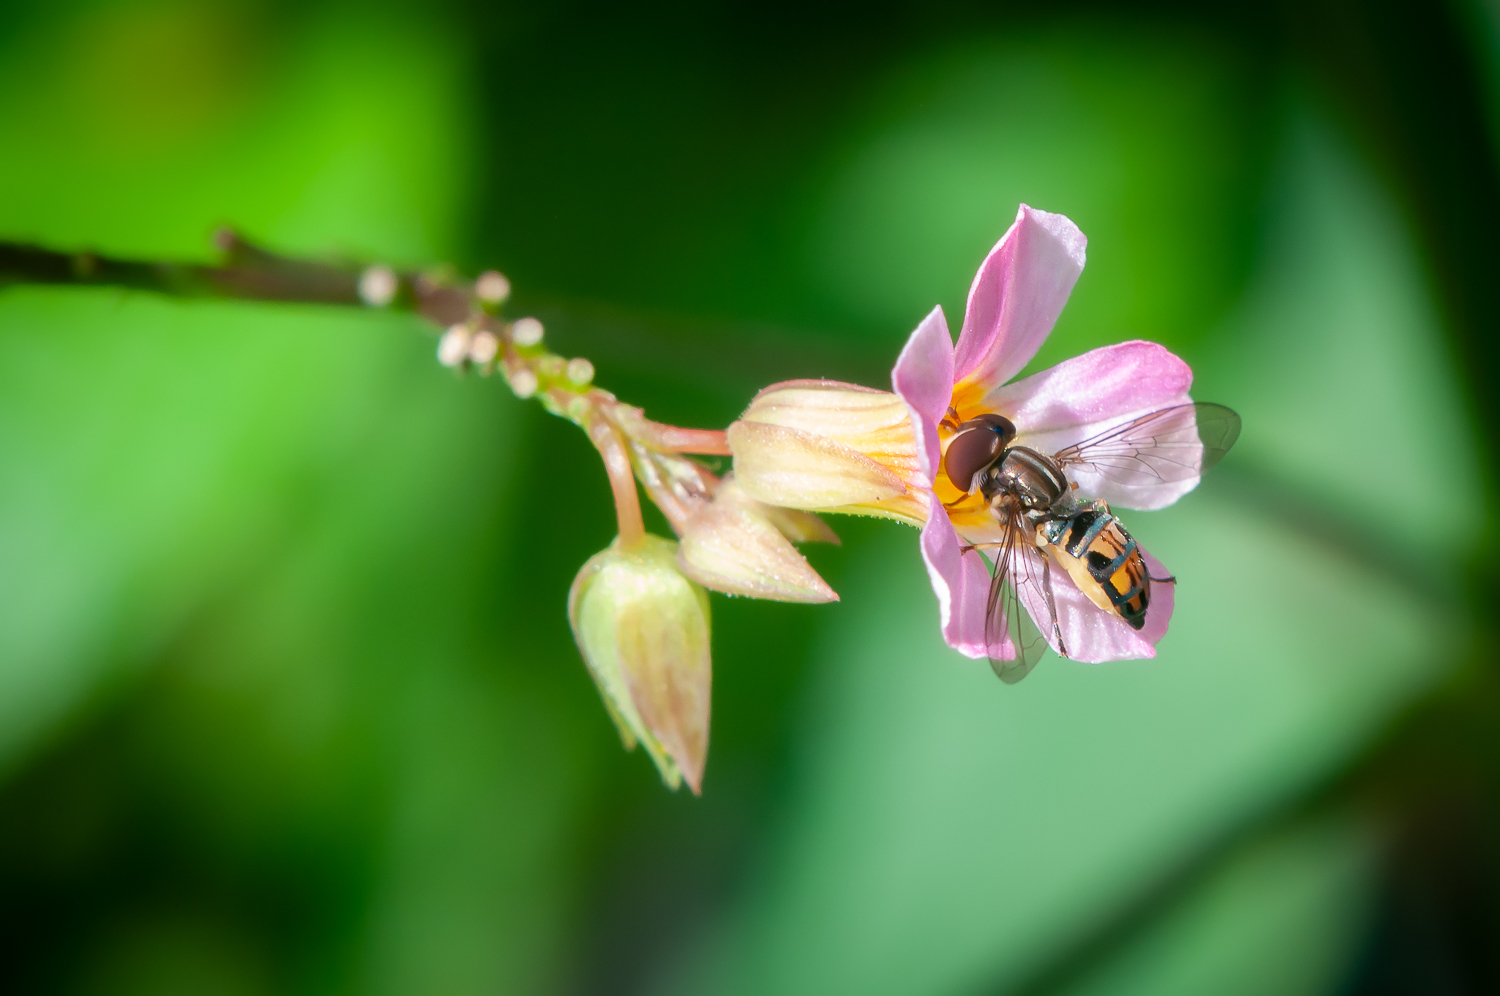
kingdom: Animalia
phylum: Arthropoda
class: Insecta
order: Diptera
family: Syrphidae
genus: Toxomerus
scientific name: Toxomerus bistrigus
